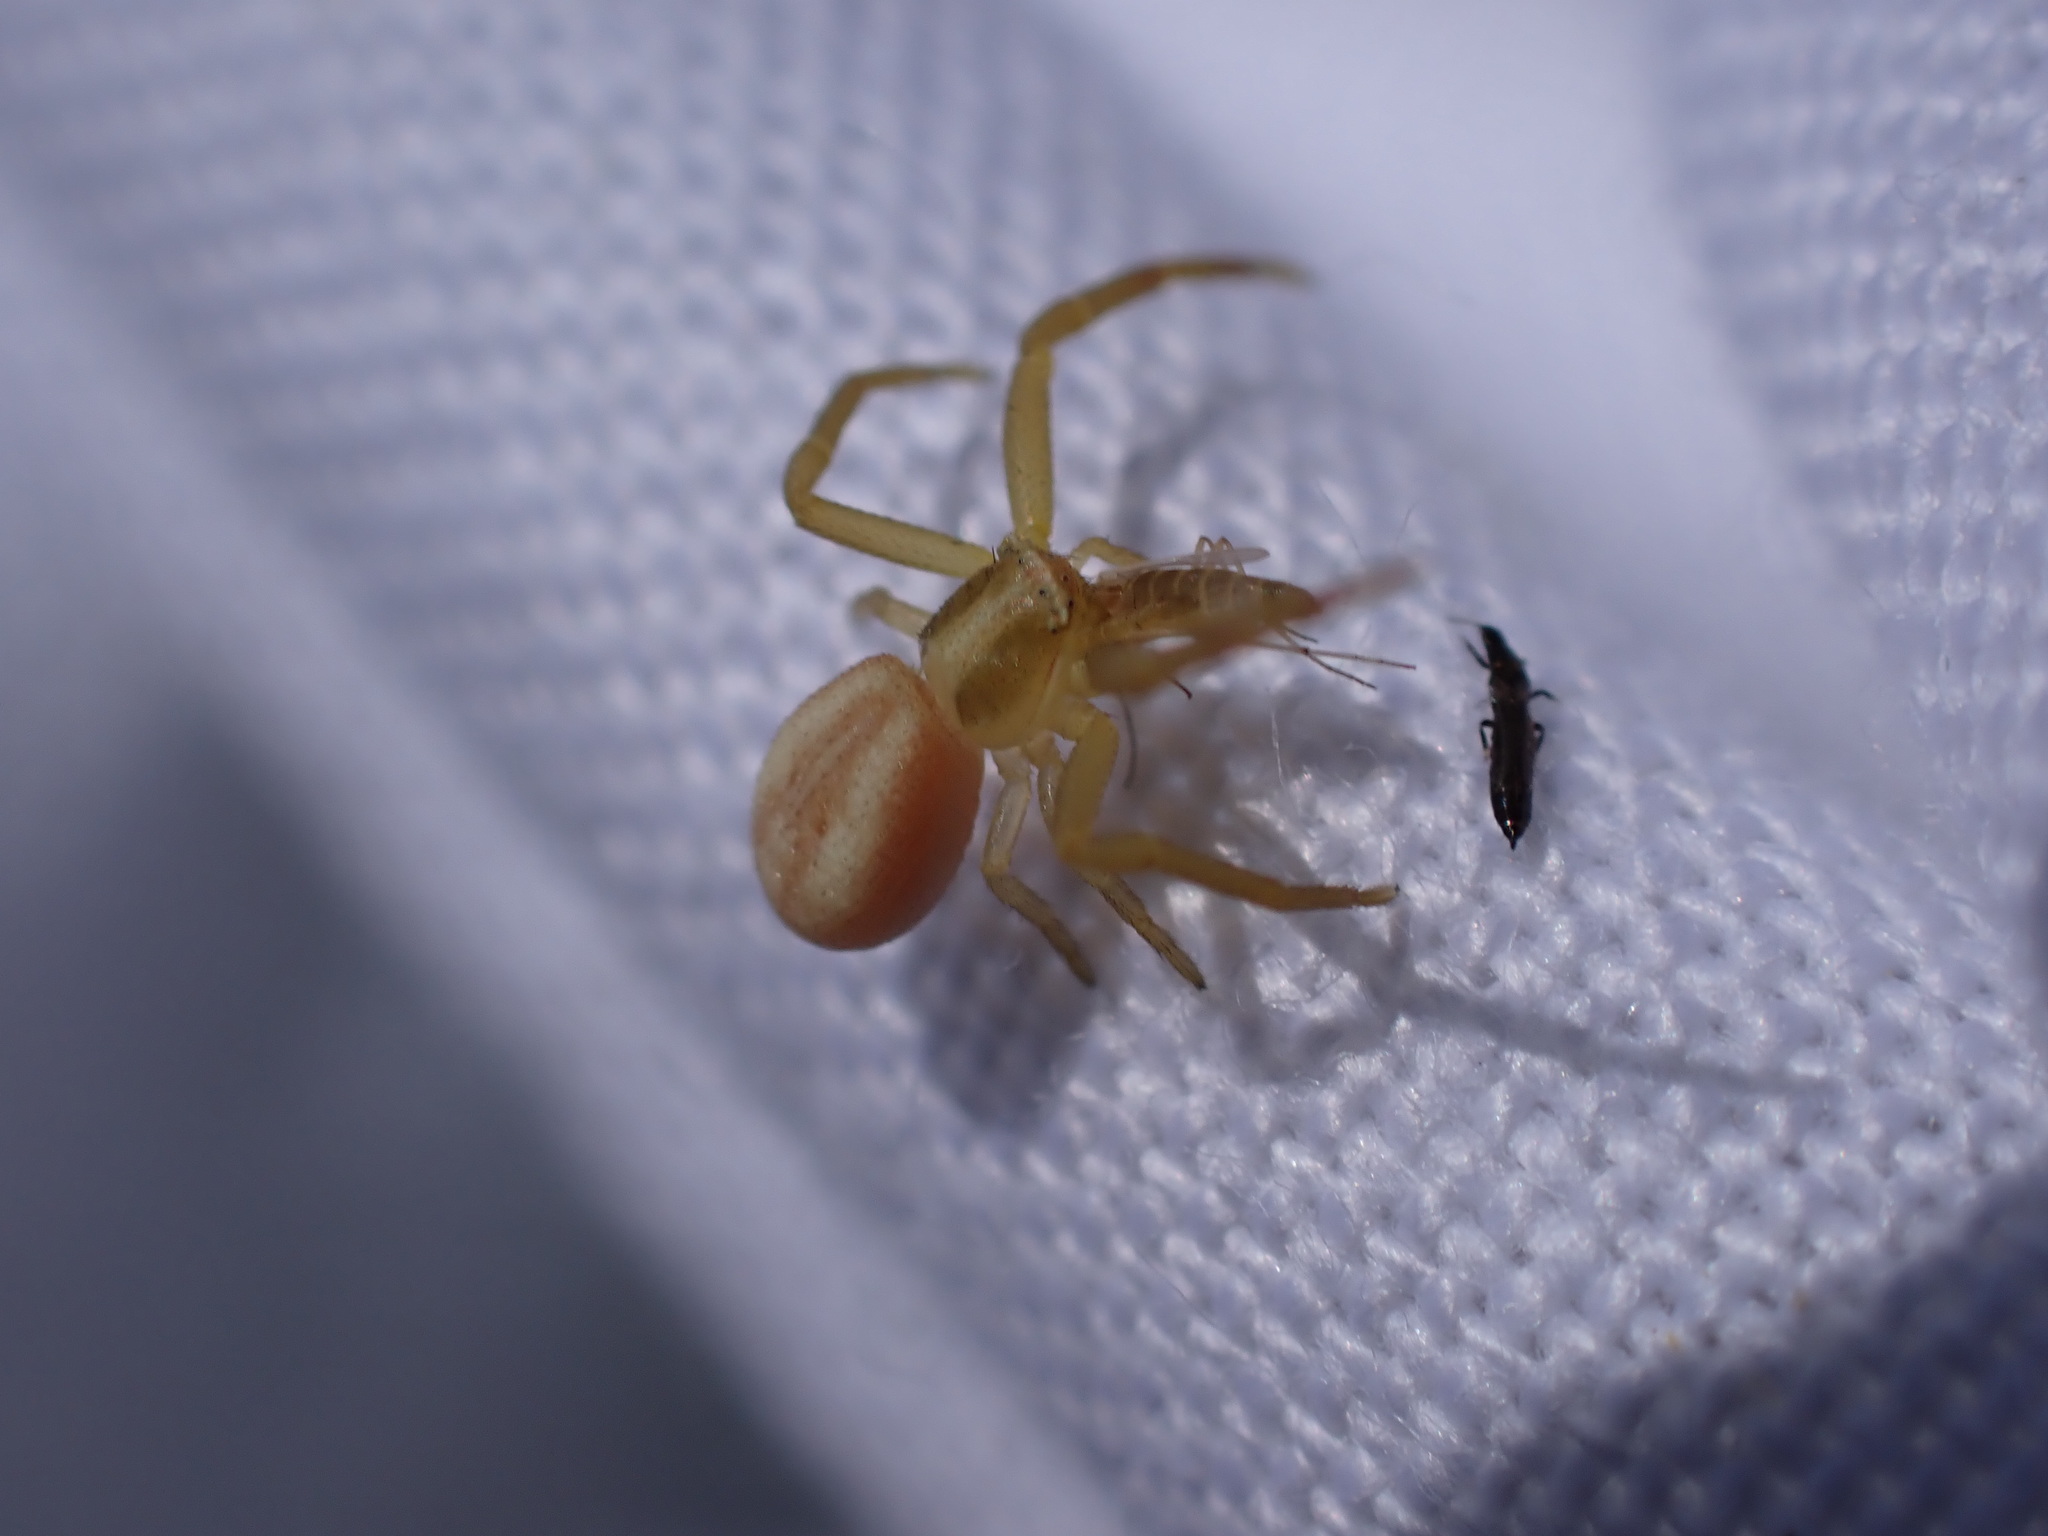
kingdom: Animalia
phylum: Arthropoda
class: Arachnida
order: Araneae
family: Thomisidae
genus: Runcinia
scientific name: Runcinia grammica
